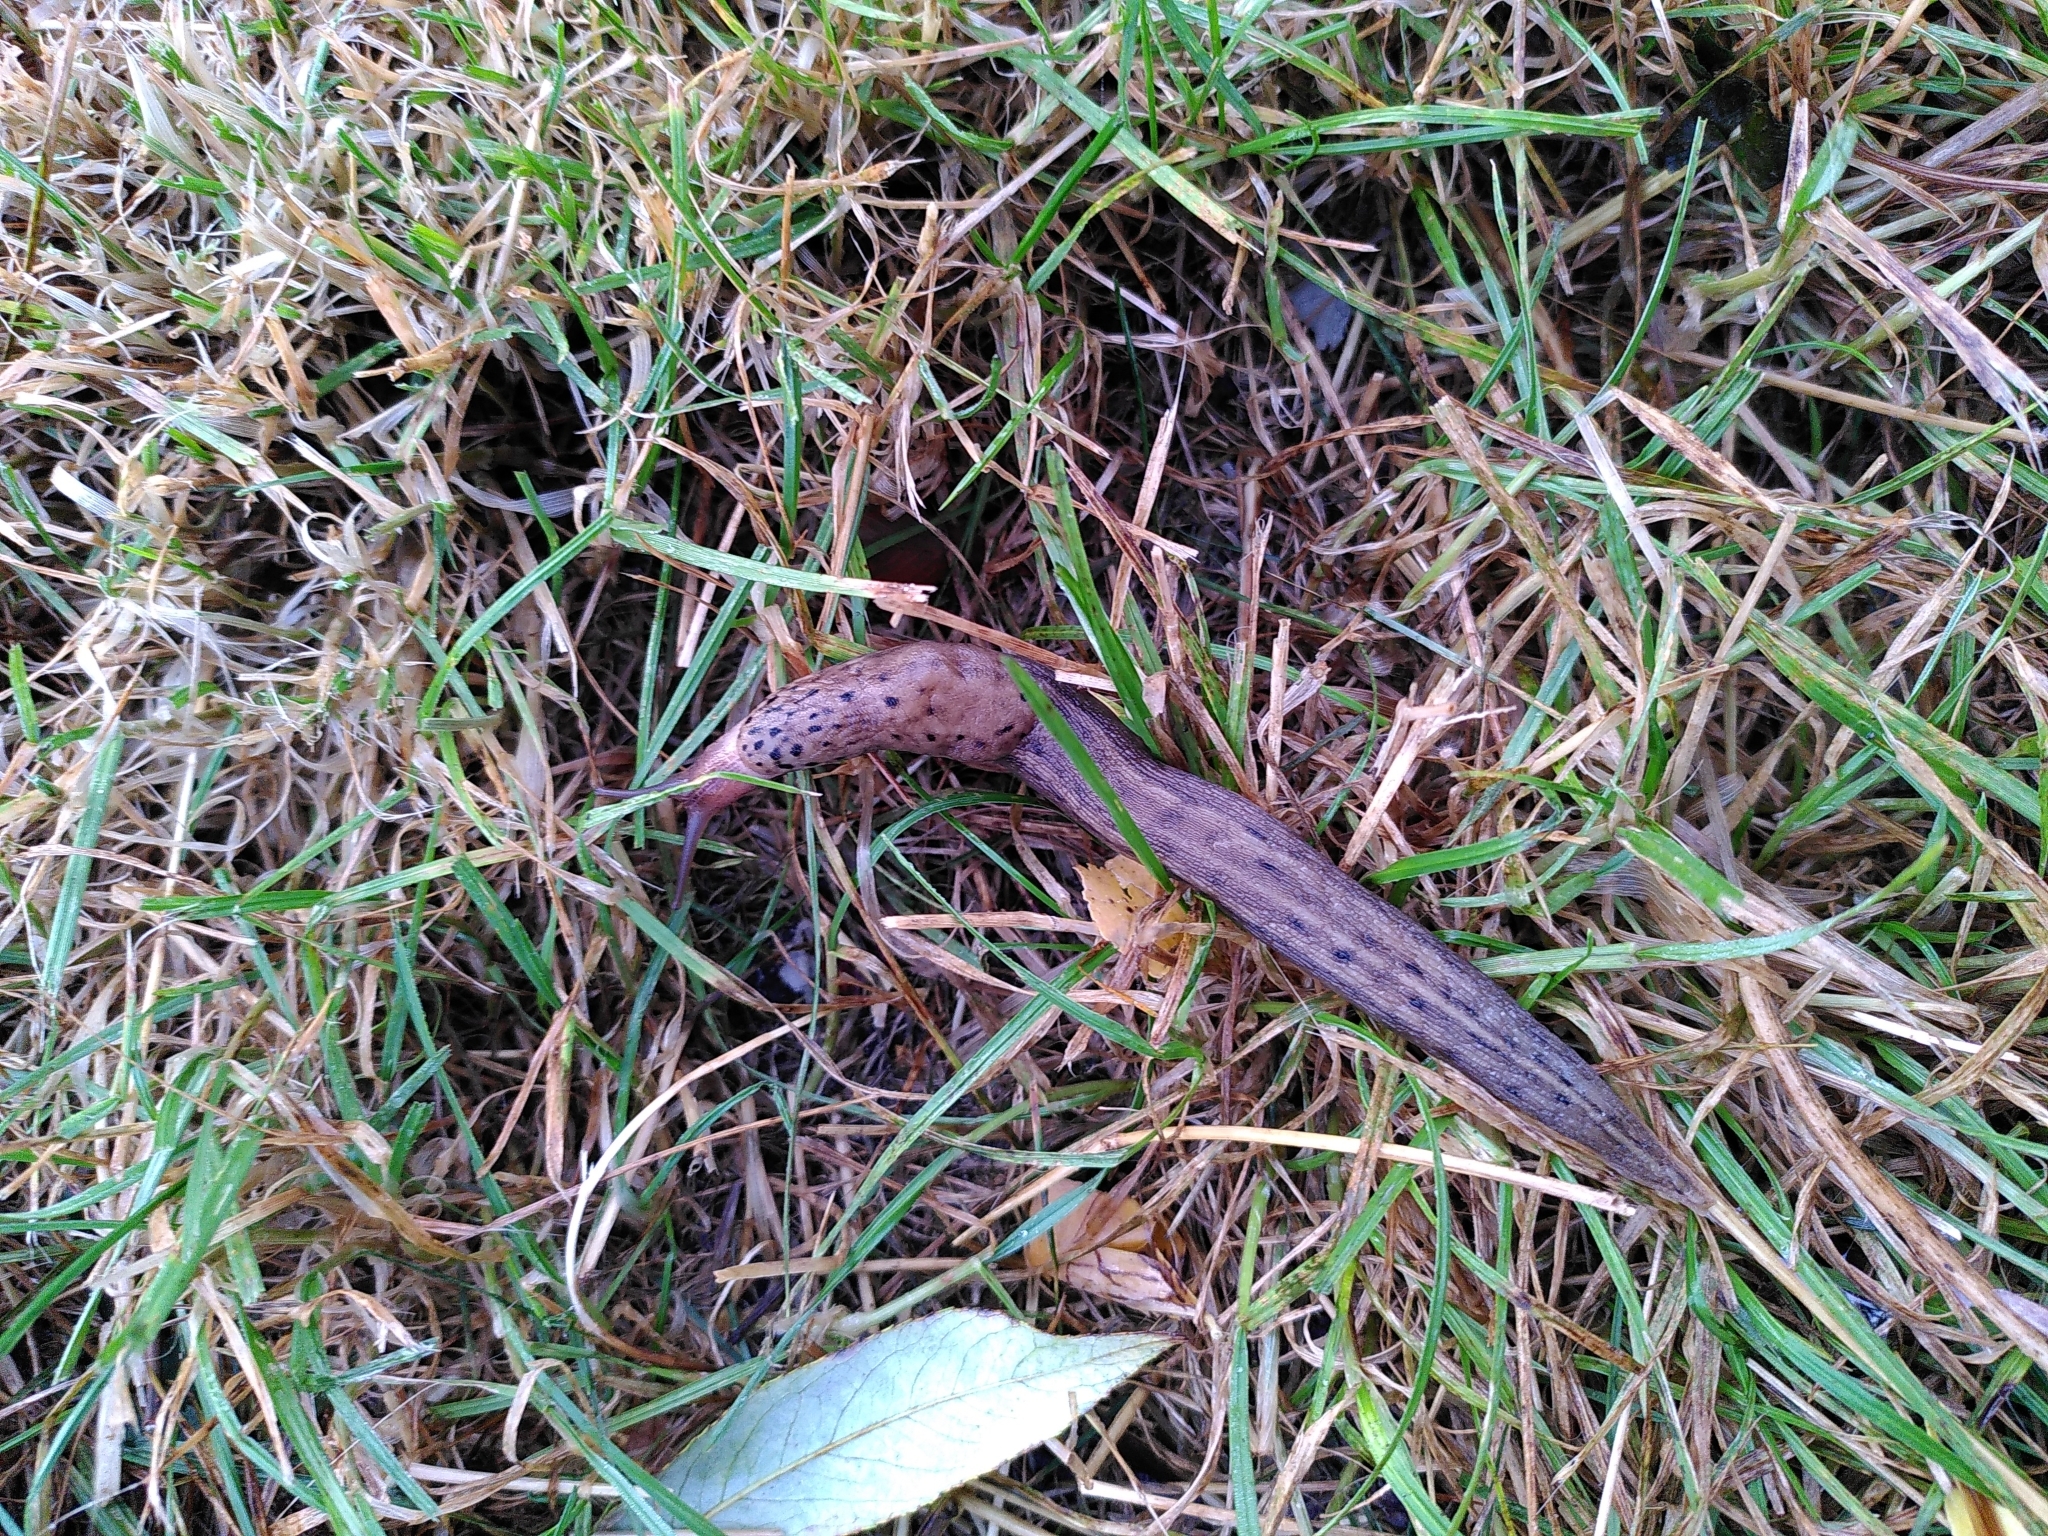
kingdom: Animalia
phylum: Mollusca
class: Gastropoda
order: Stylommatophora
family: Limacidae
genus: Limax
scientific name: Limax maximus
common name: Great grey slug
